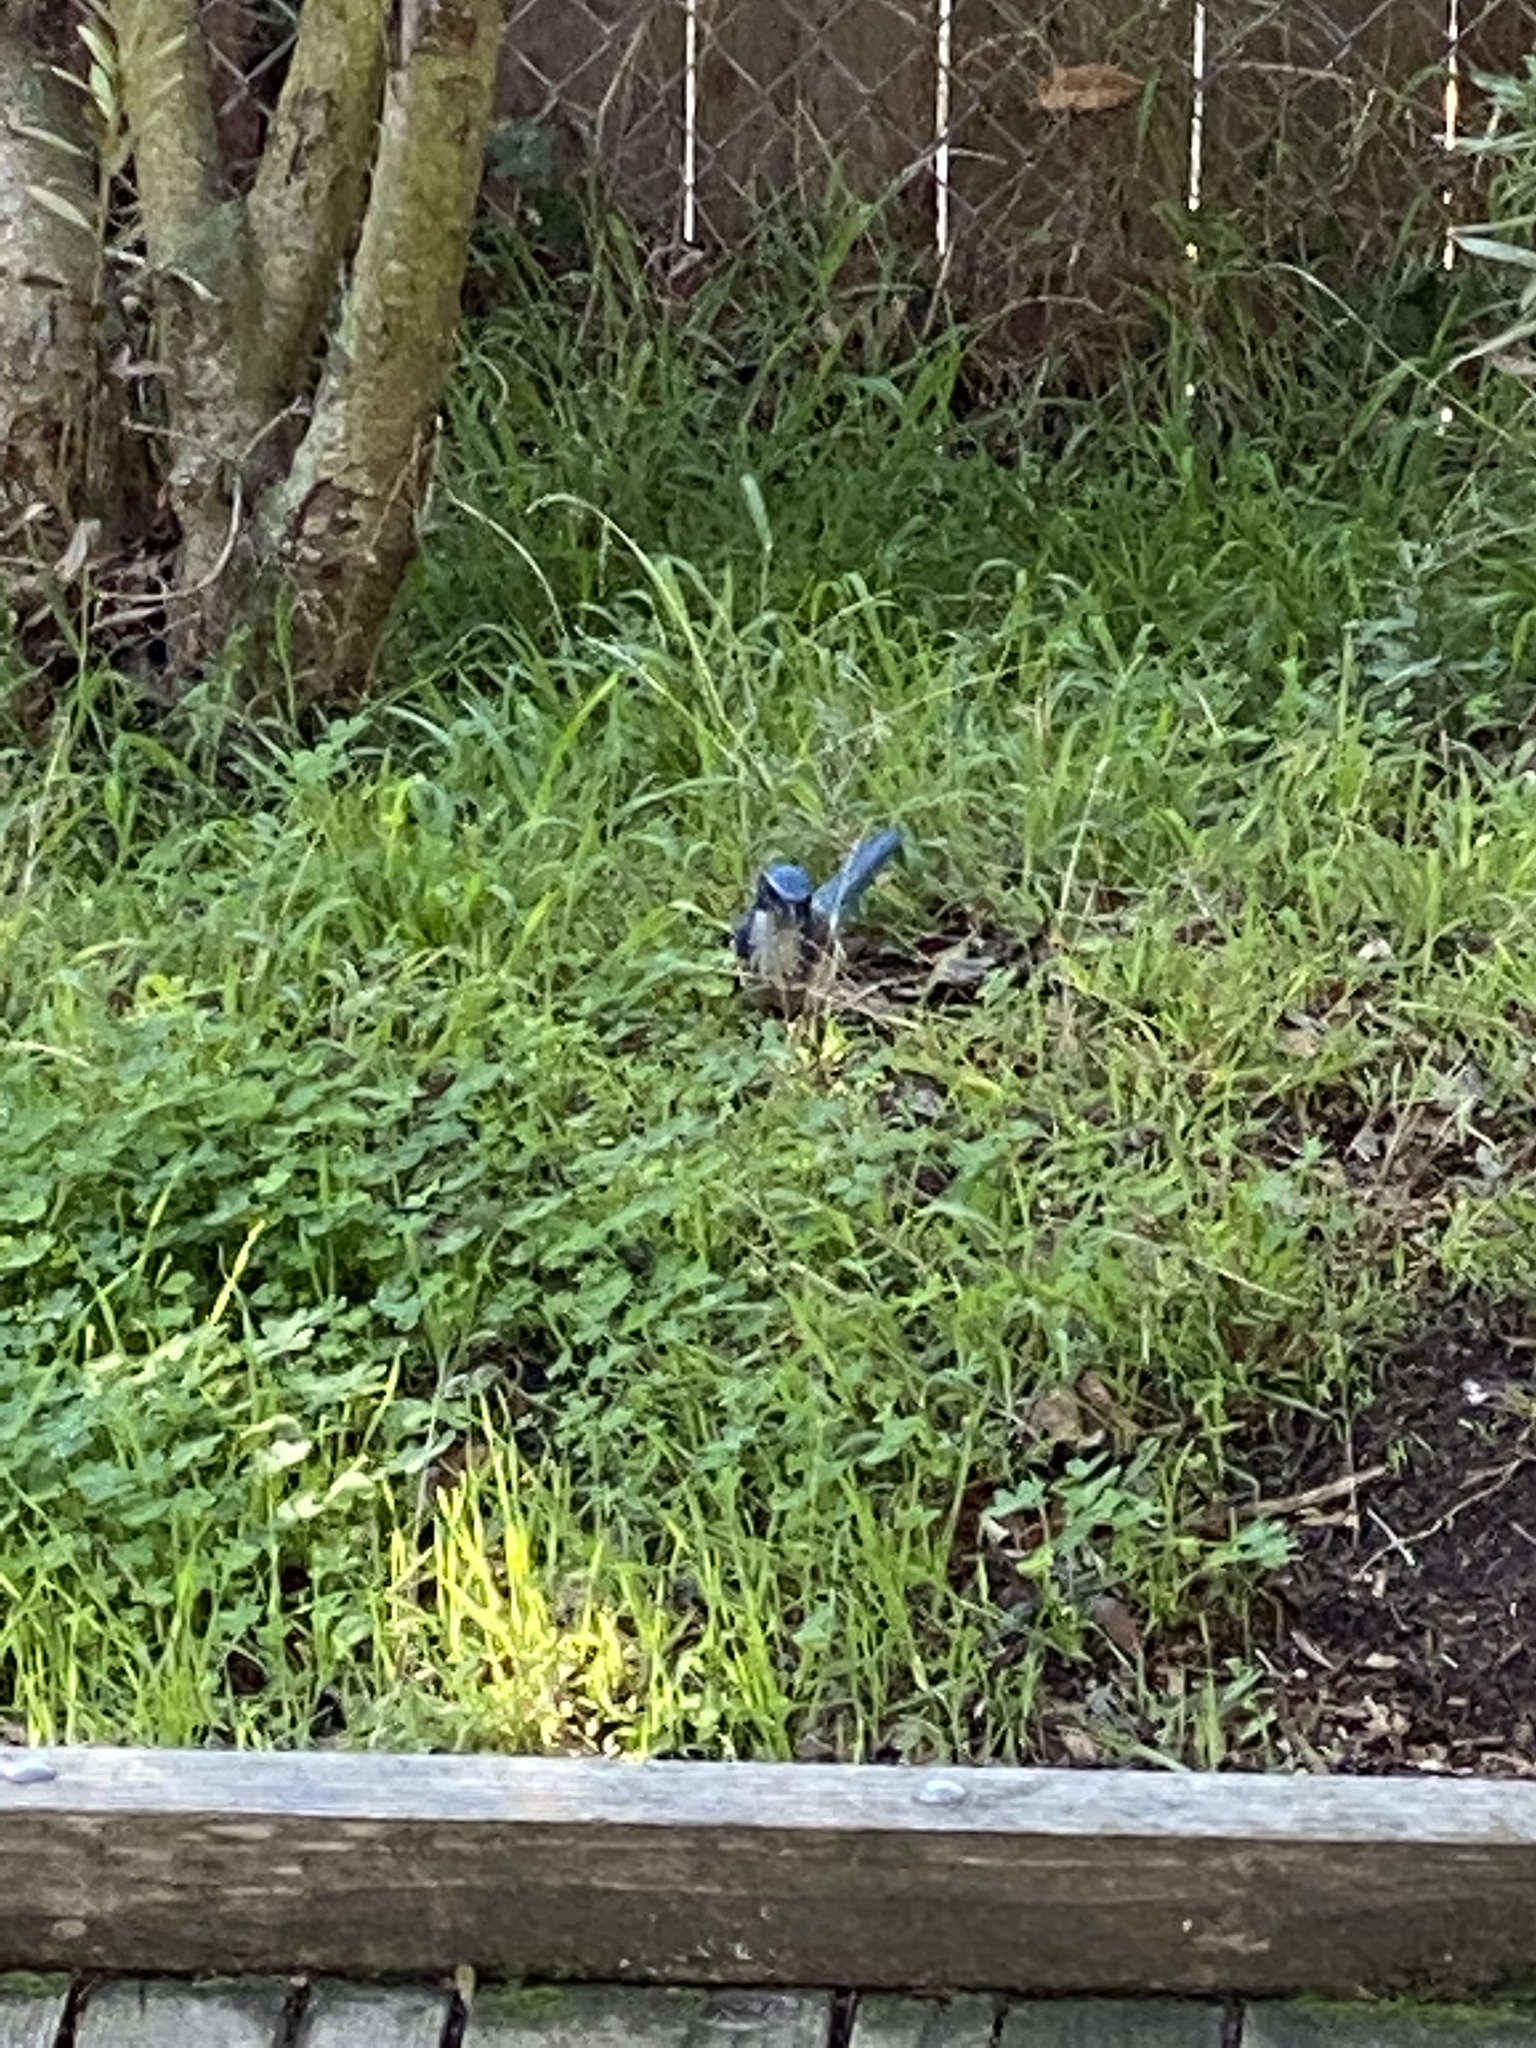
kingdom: Animalia
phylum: Chordata
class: Aves
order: Passeriformes
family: Corvidae
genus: Aphelocoma
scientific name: Aphelocoma californica
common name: California scrub-jay
